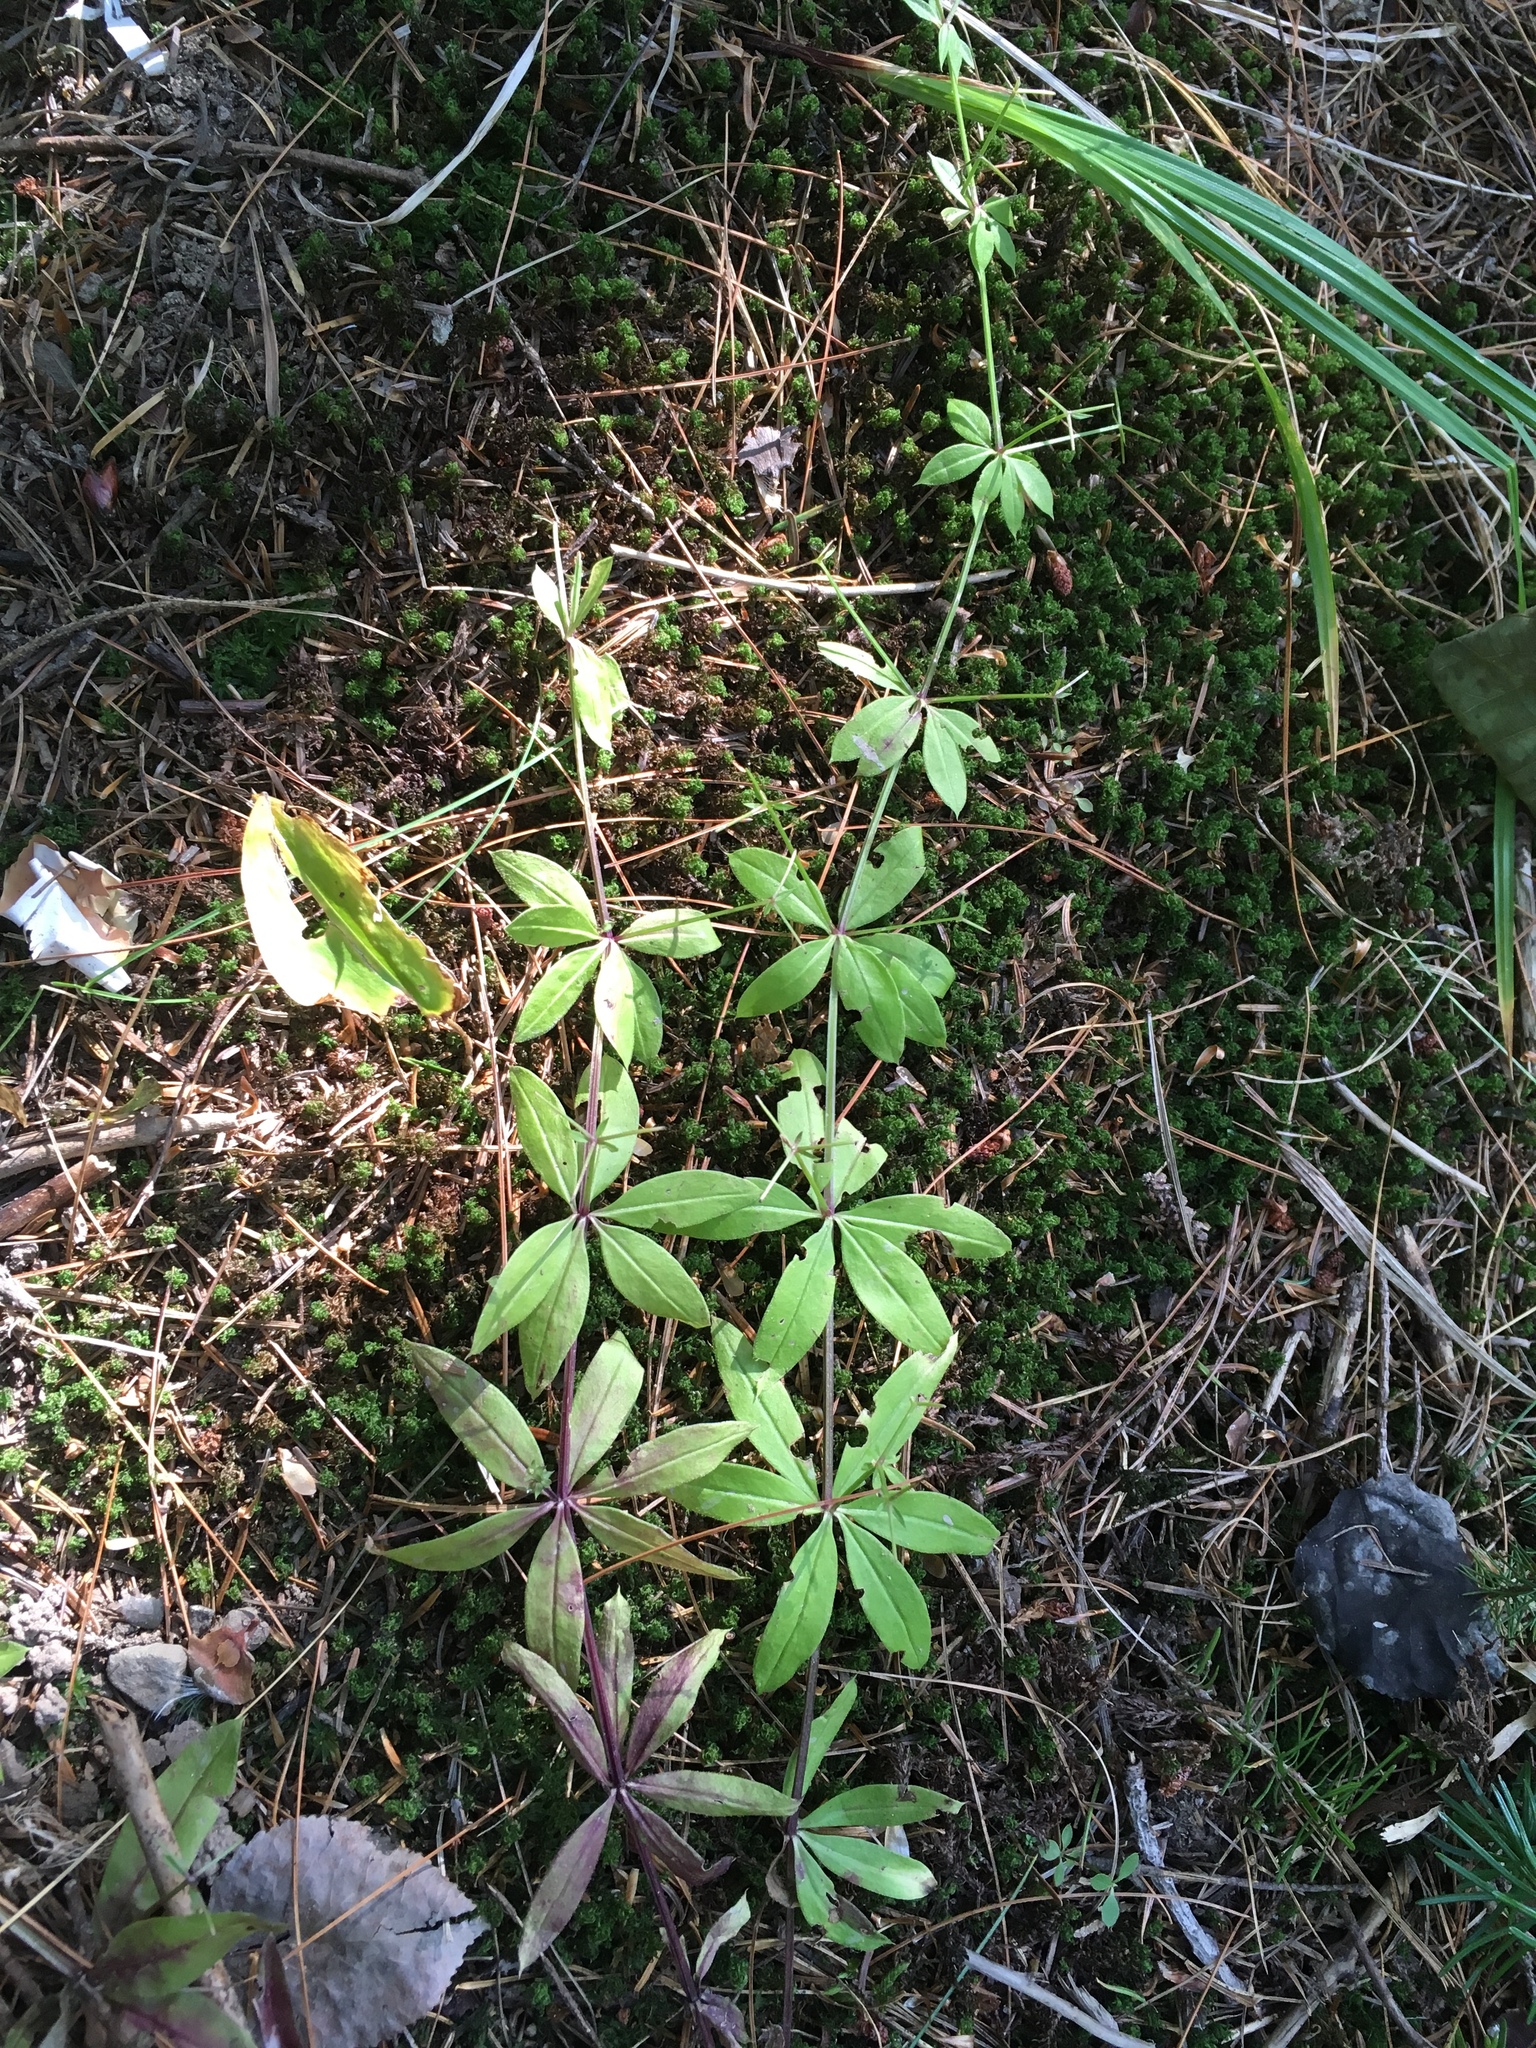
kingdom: Plantae
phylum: Tracheophyta
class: Magnoliopsida
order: Gentianales
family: Rubiaceae
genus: Galium
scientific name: Galium triflorum
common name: Fragrant bedstraw
